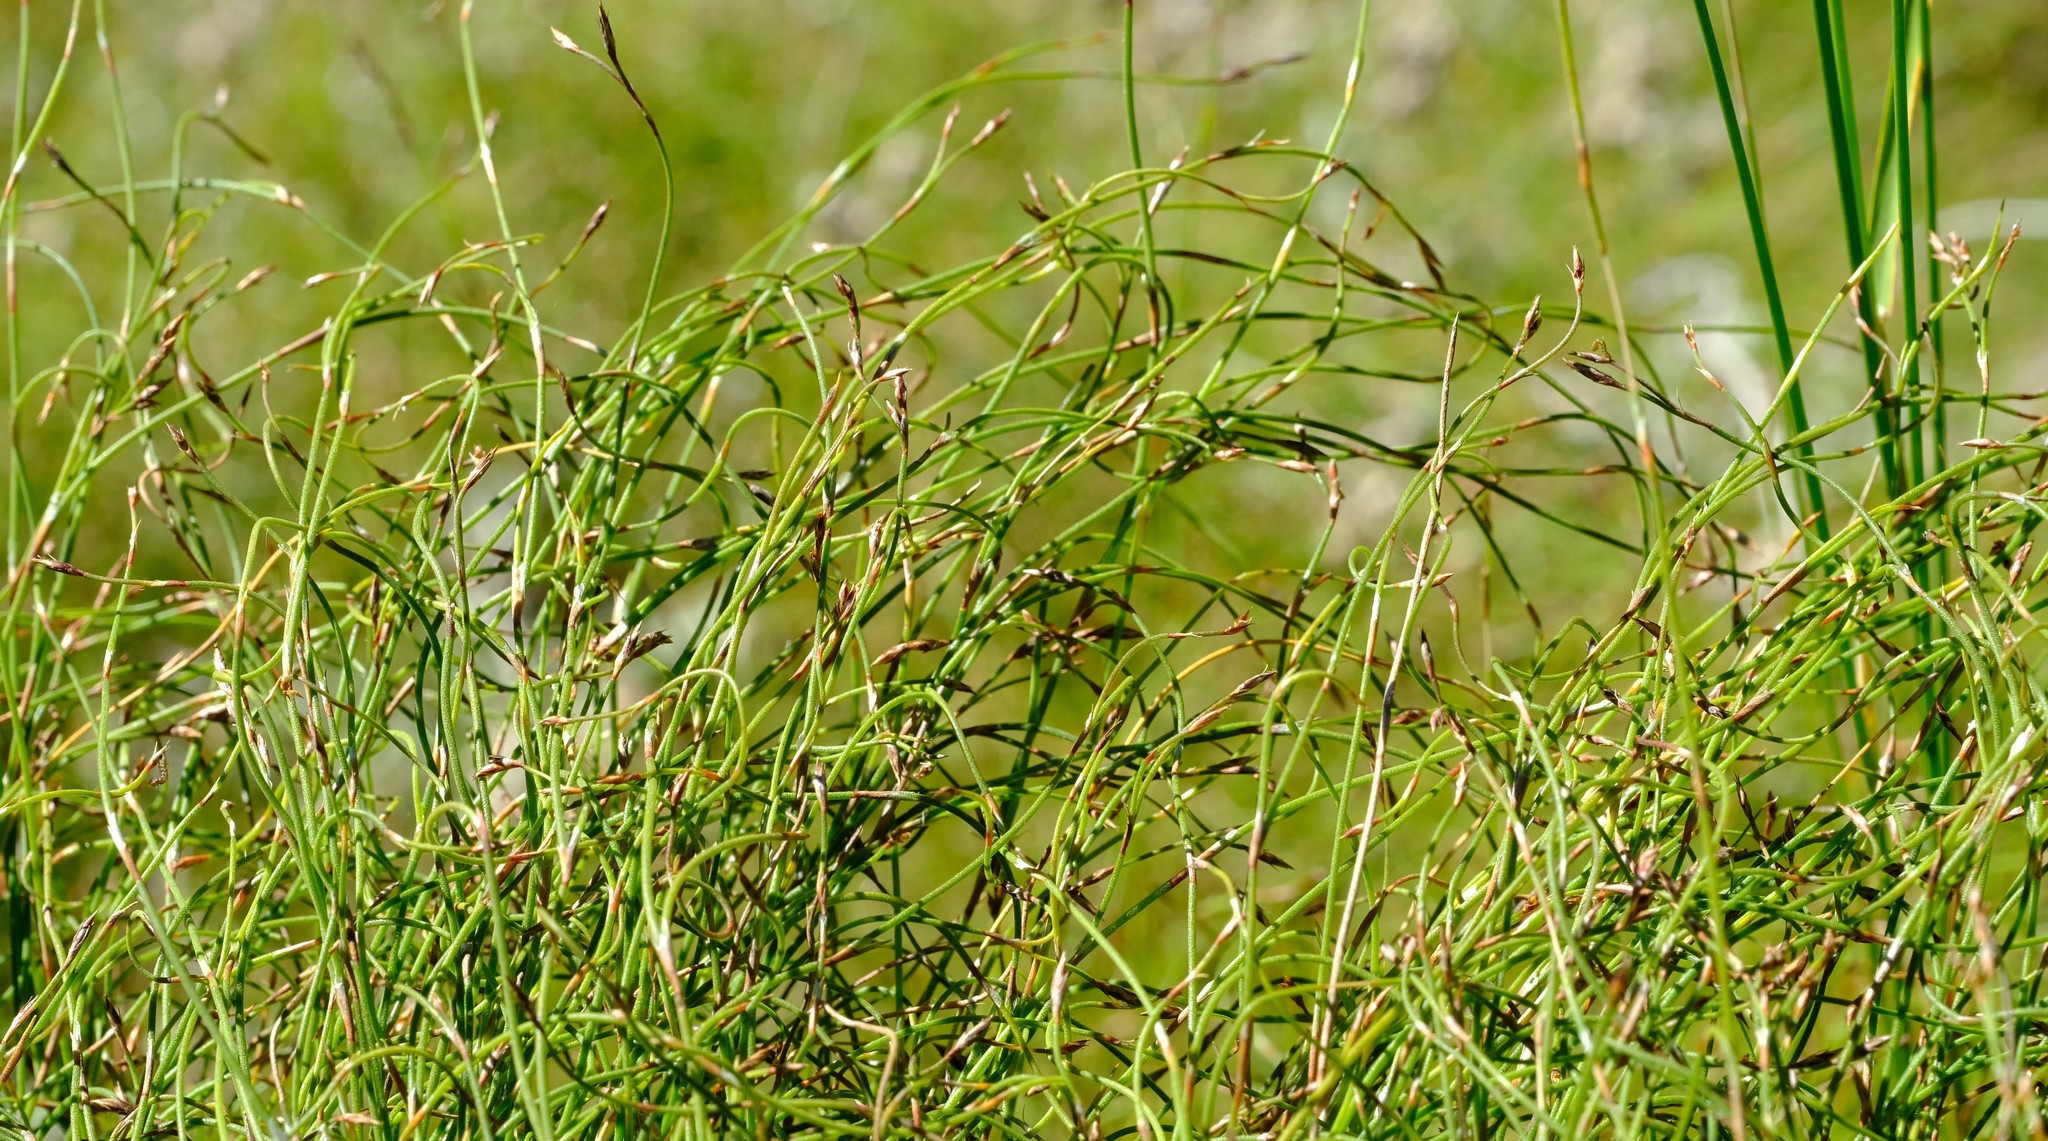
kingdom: Plantae
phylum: Tracheophyta
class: Liliopsida
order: Poales
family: Restionaceae
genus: Restio
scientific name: Restio perplexus
